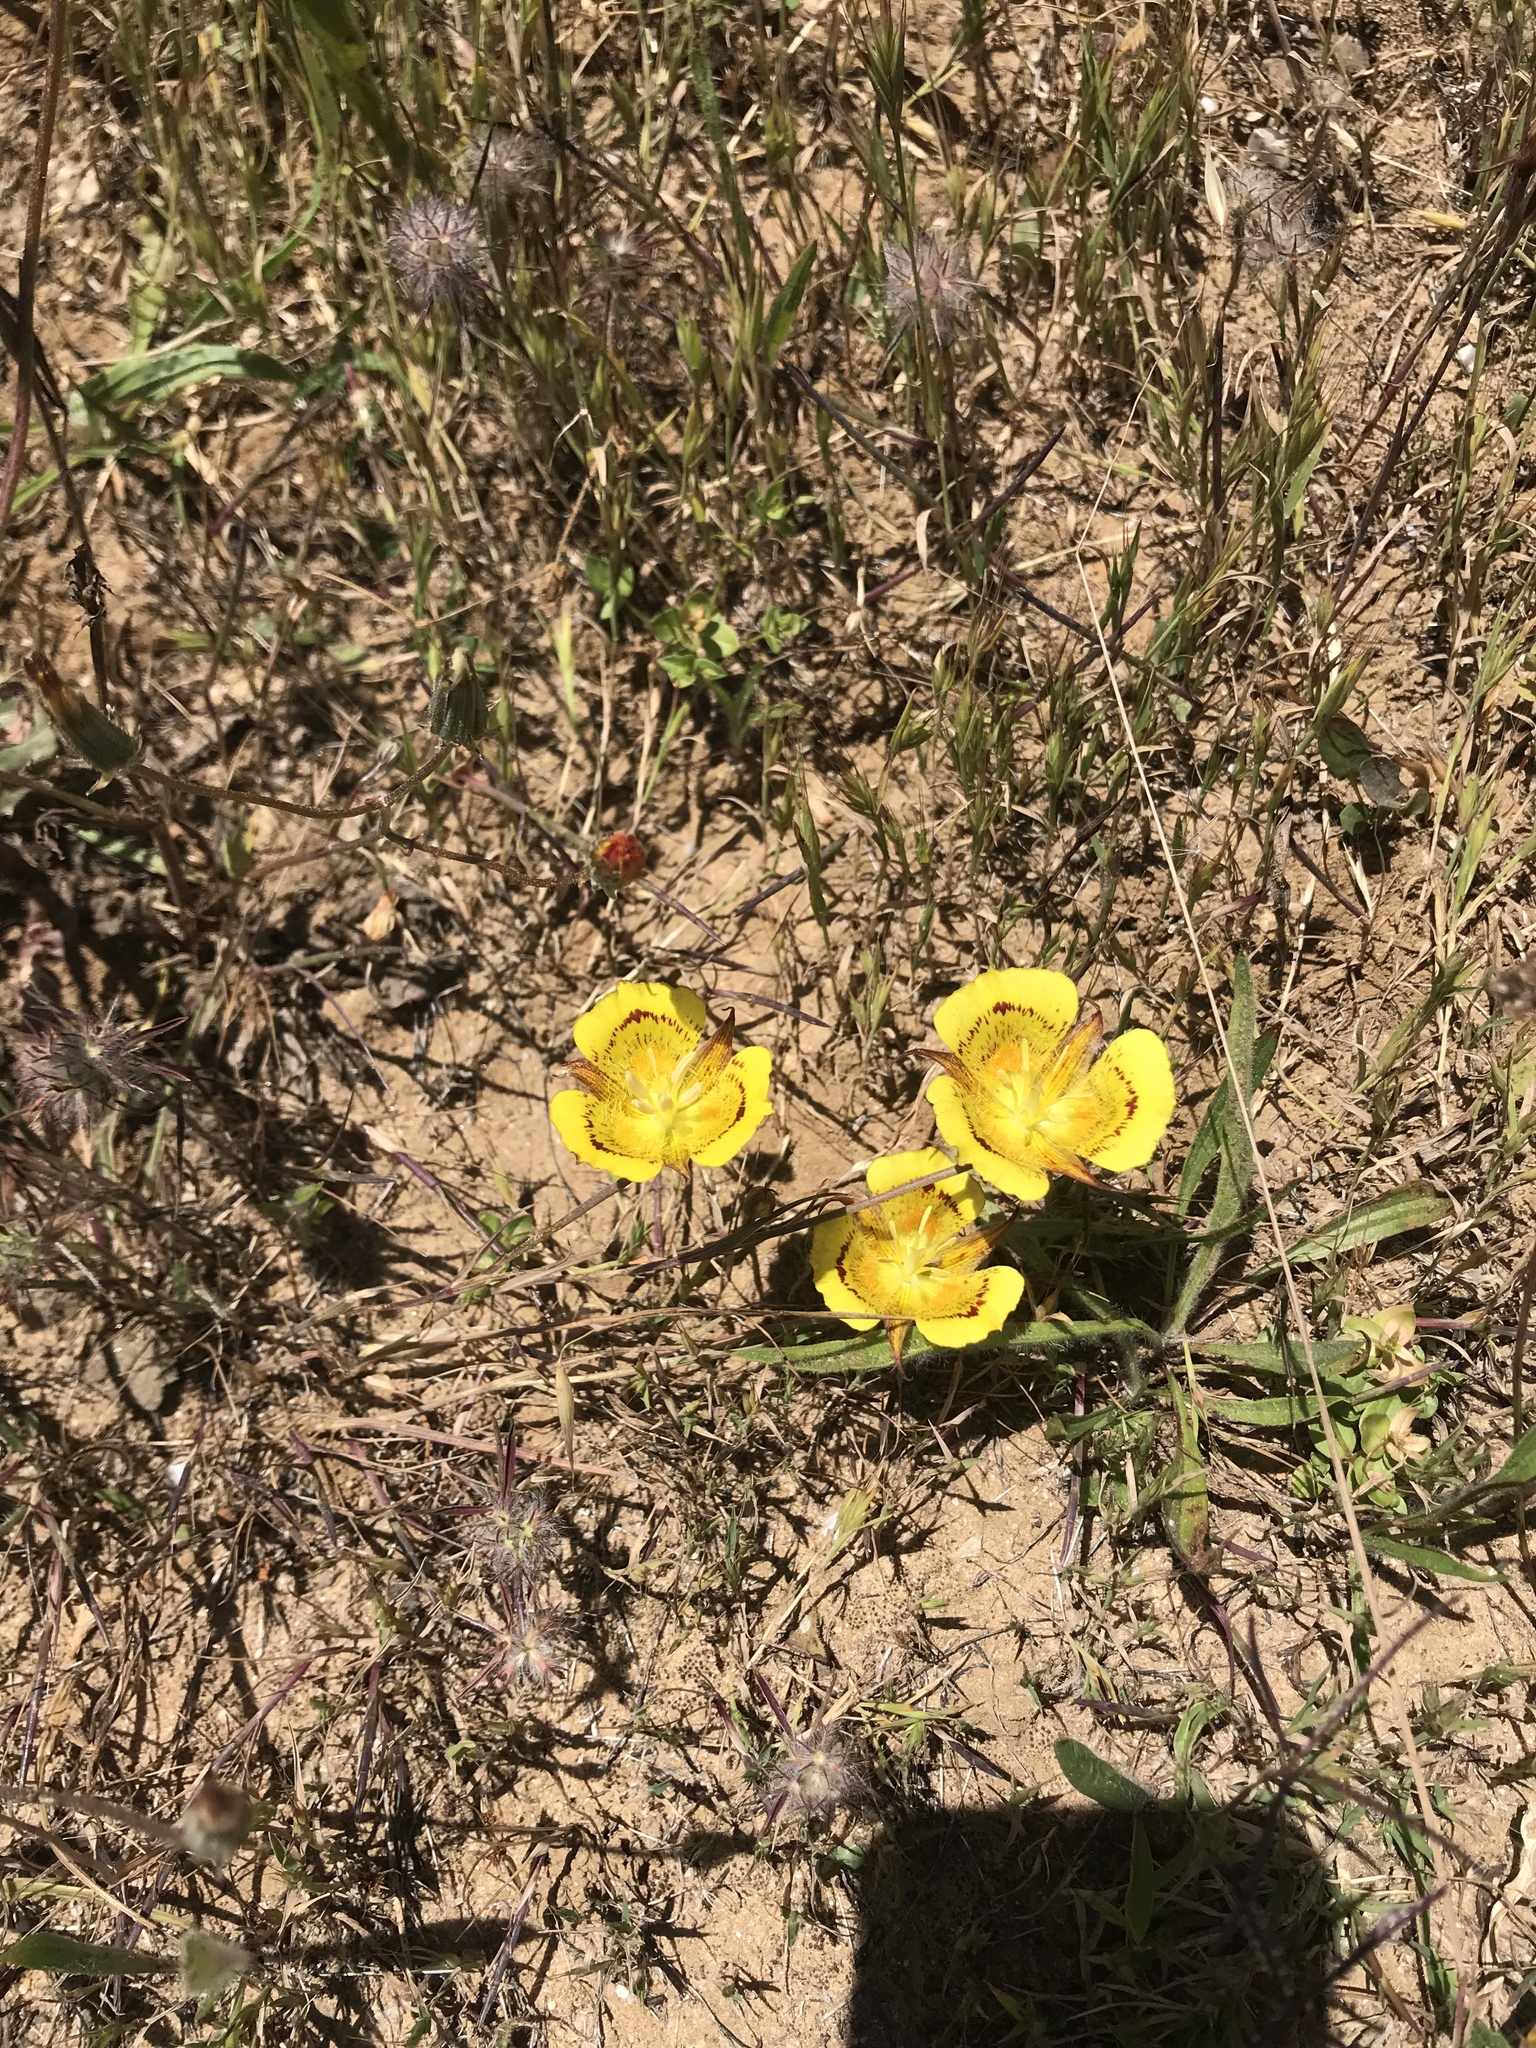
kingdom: Plantae
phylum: Tracheophyta
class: Liliopsida
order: Liliales
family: Liliaceae
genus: Calochortus
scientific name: Calochortus luteus
